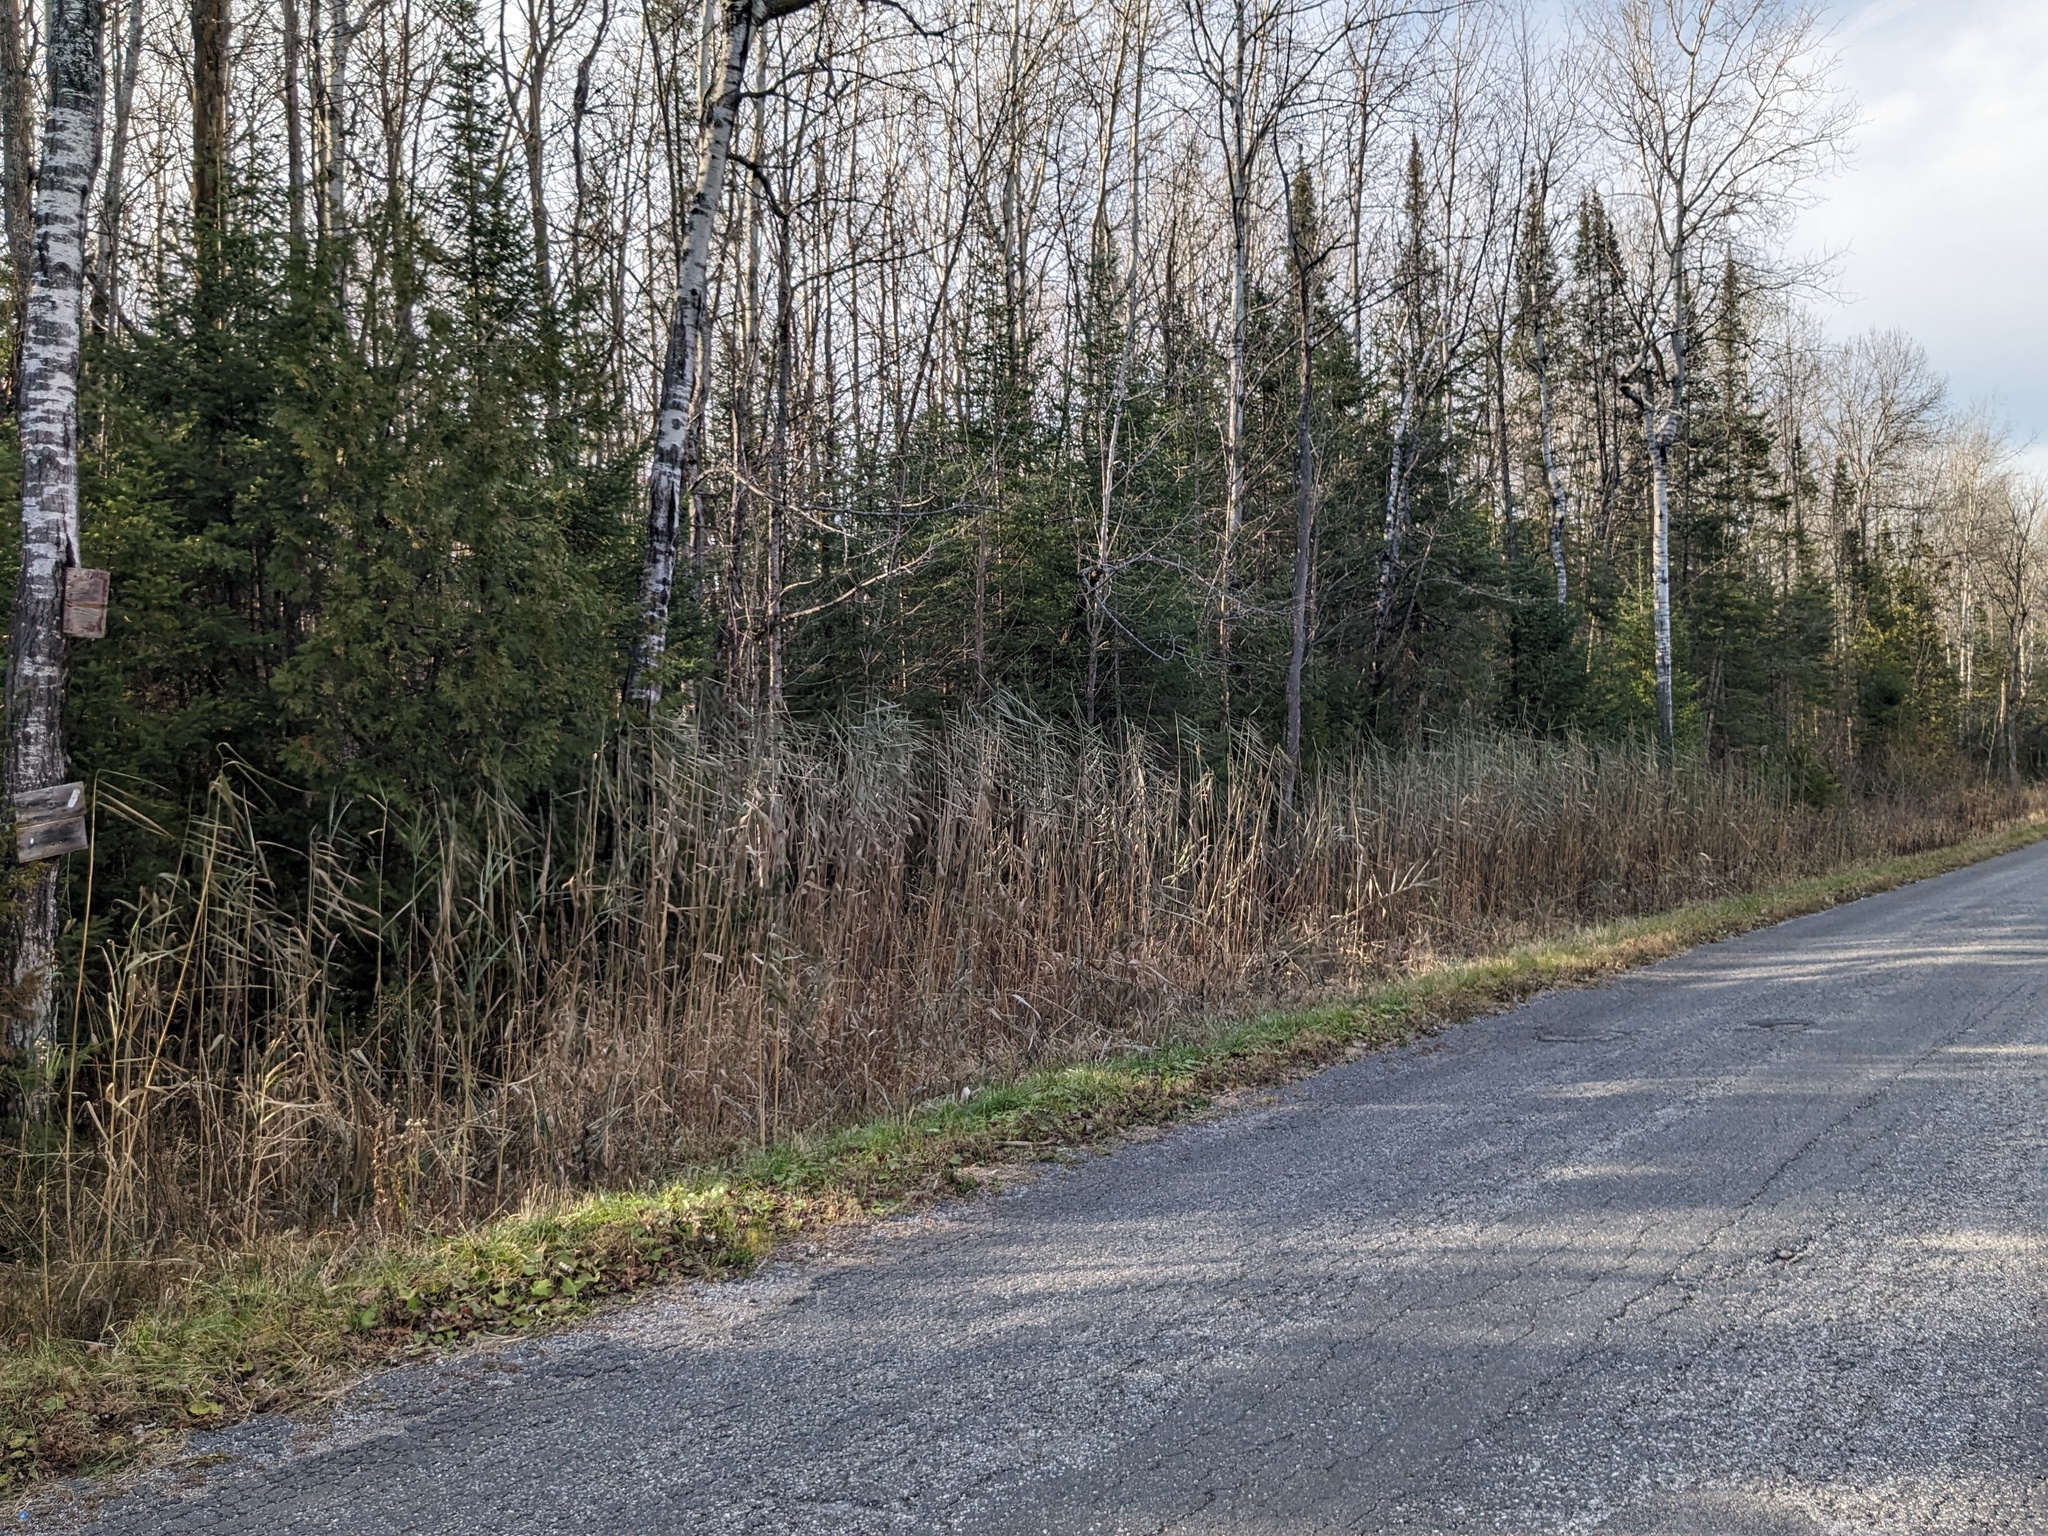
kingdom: Plantae
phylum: Tracheophyta
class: Liliopsida
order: Poales
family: Poaceae
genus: Phragmites
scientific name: Phragmites australis
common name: Common reed
